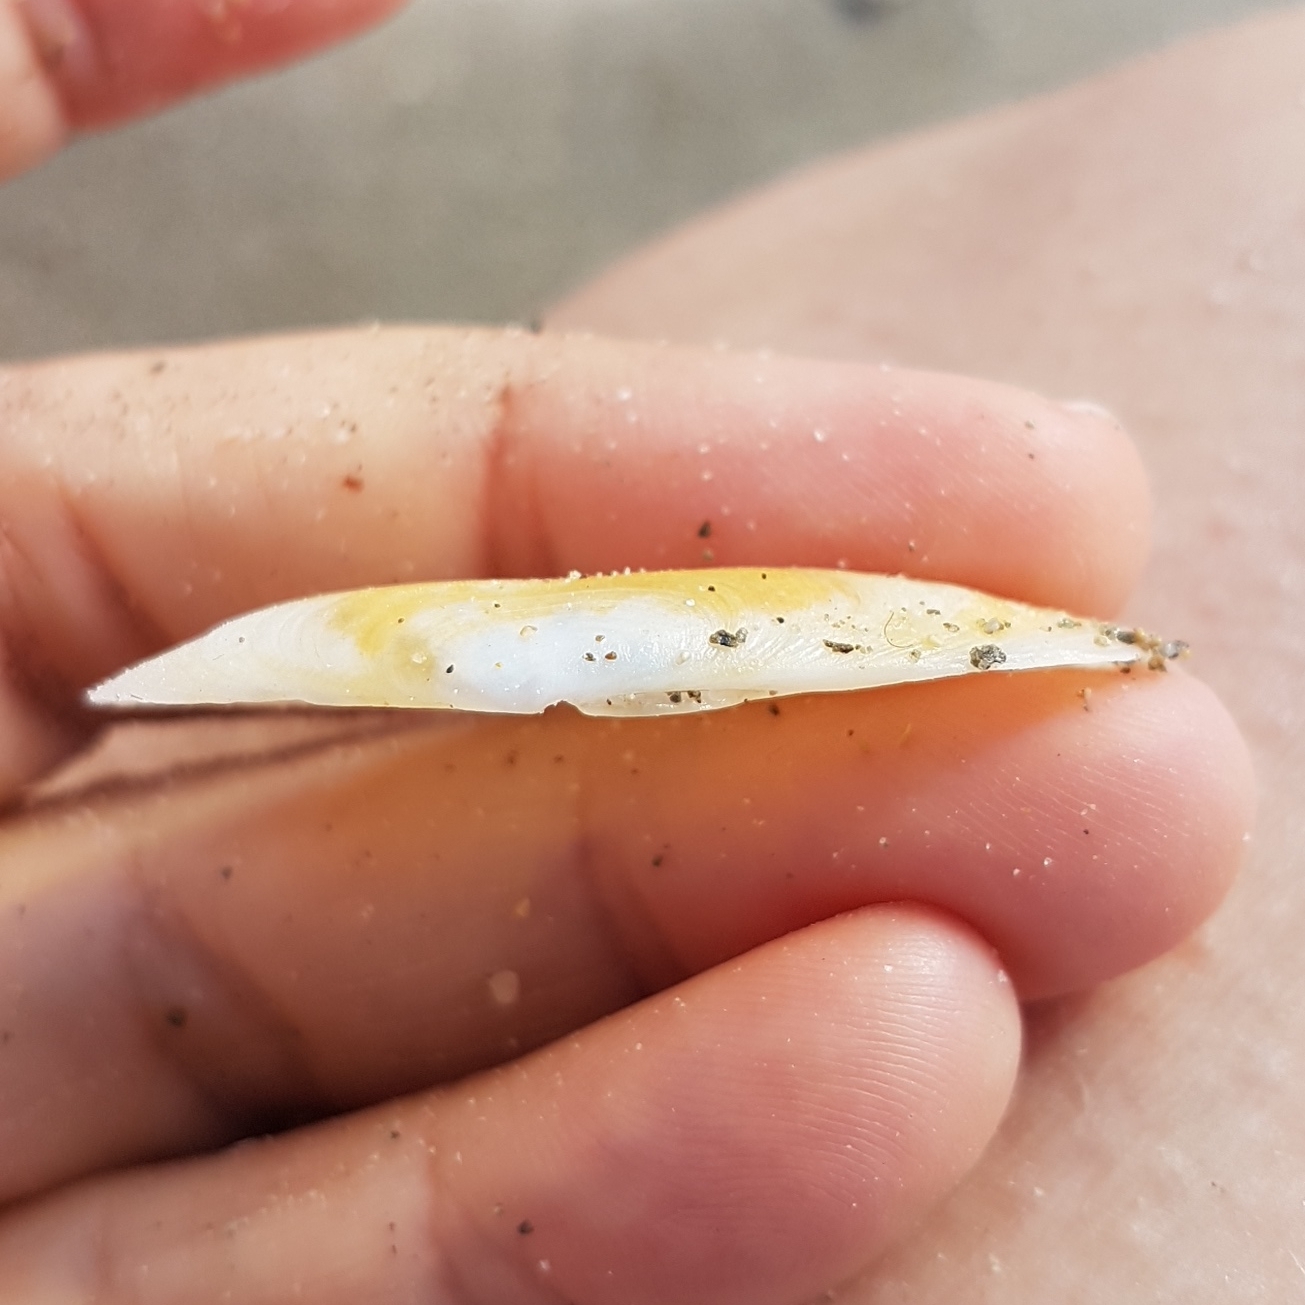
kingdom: Animalia
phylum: Mollusca
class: Bivalvia
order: Cardiida
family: Solecurtidae
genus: Azorinus
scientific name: Azorinus chamasolen
